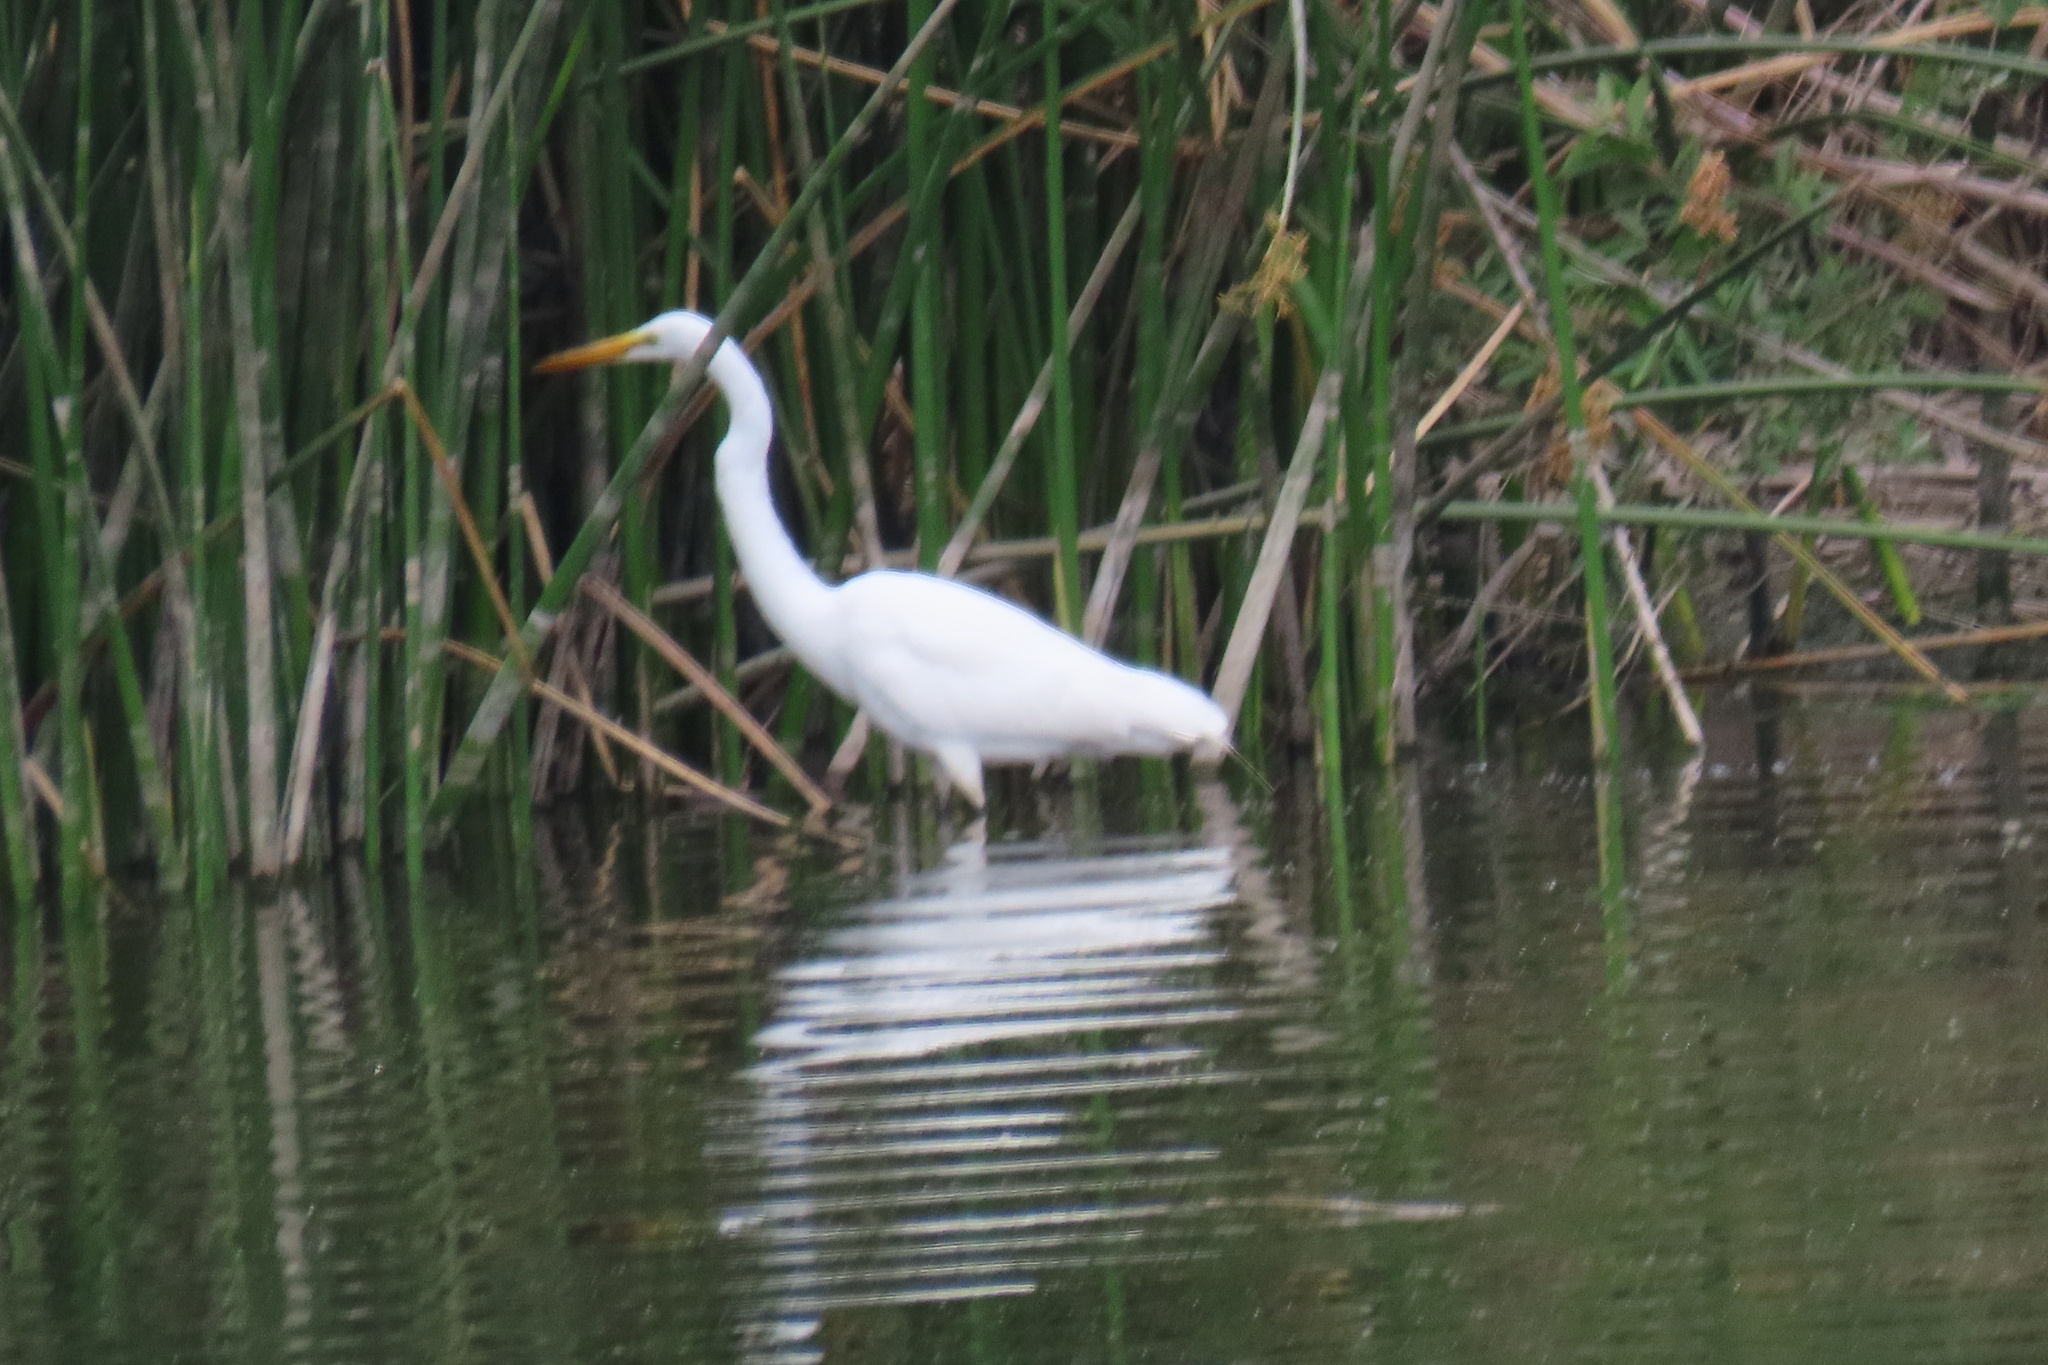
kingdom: Animalia
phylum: Chordata
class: Aves
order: Pelecaniformes
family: Ardeidae
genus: Ardea
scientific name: Ardea alba
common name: Great egret
